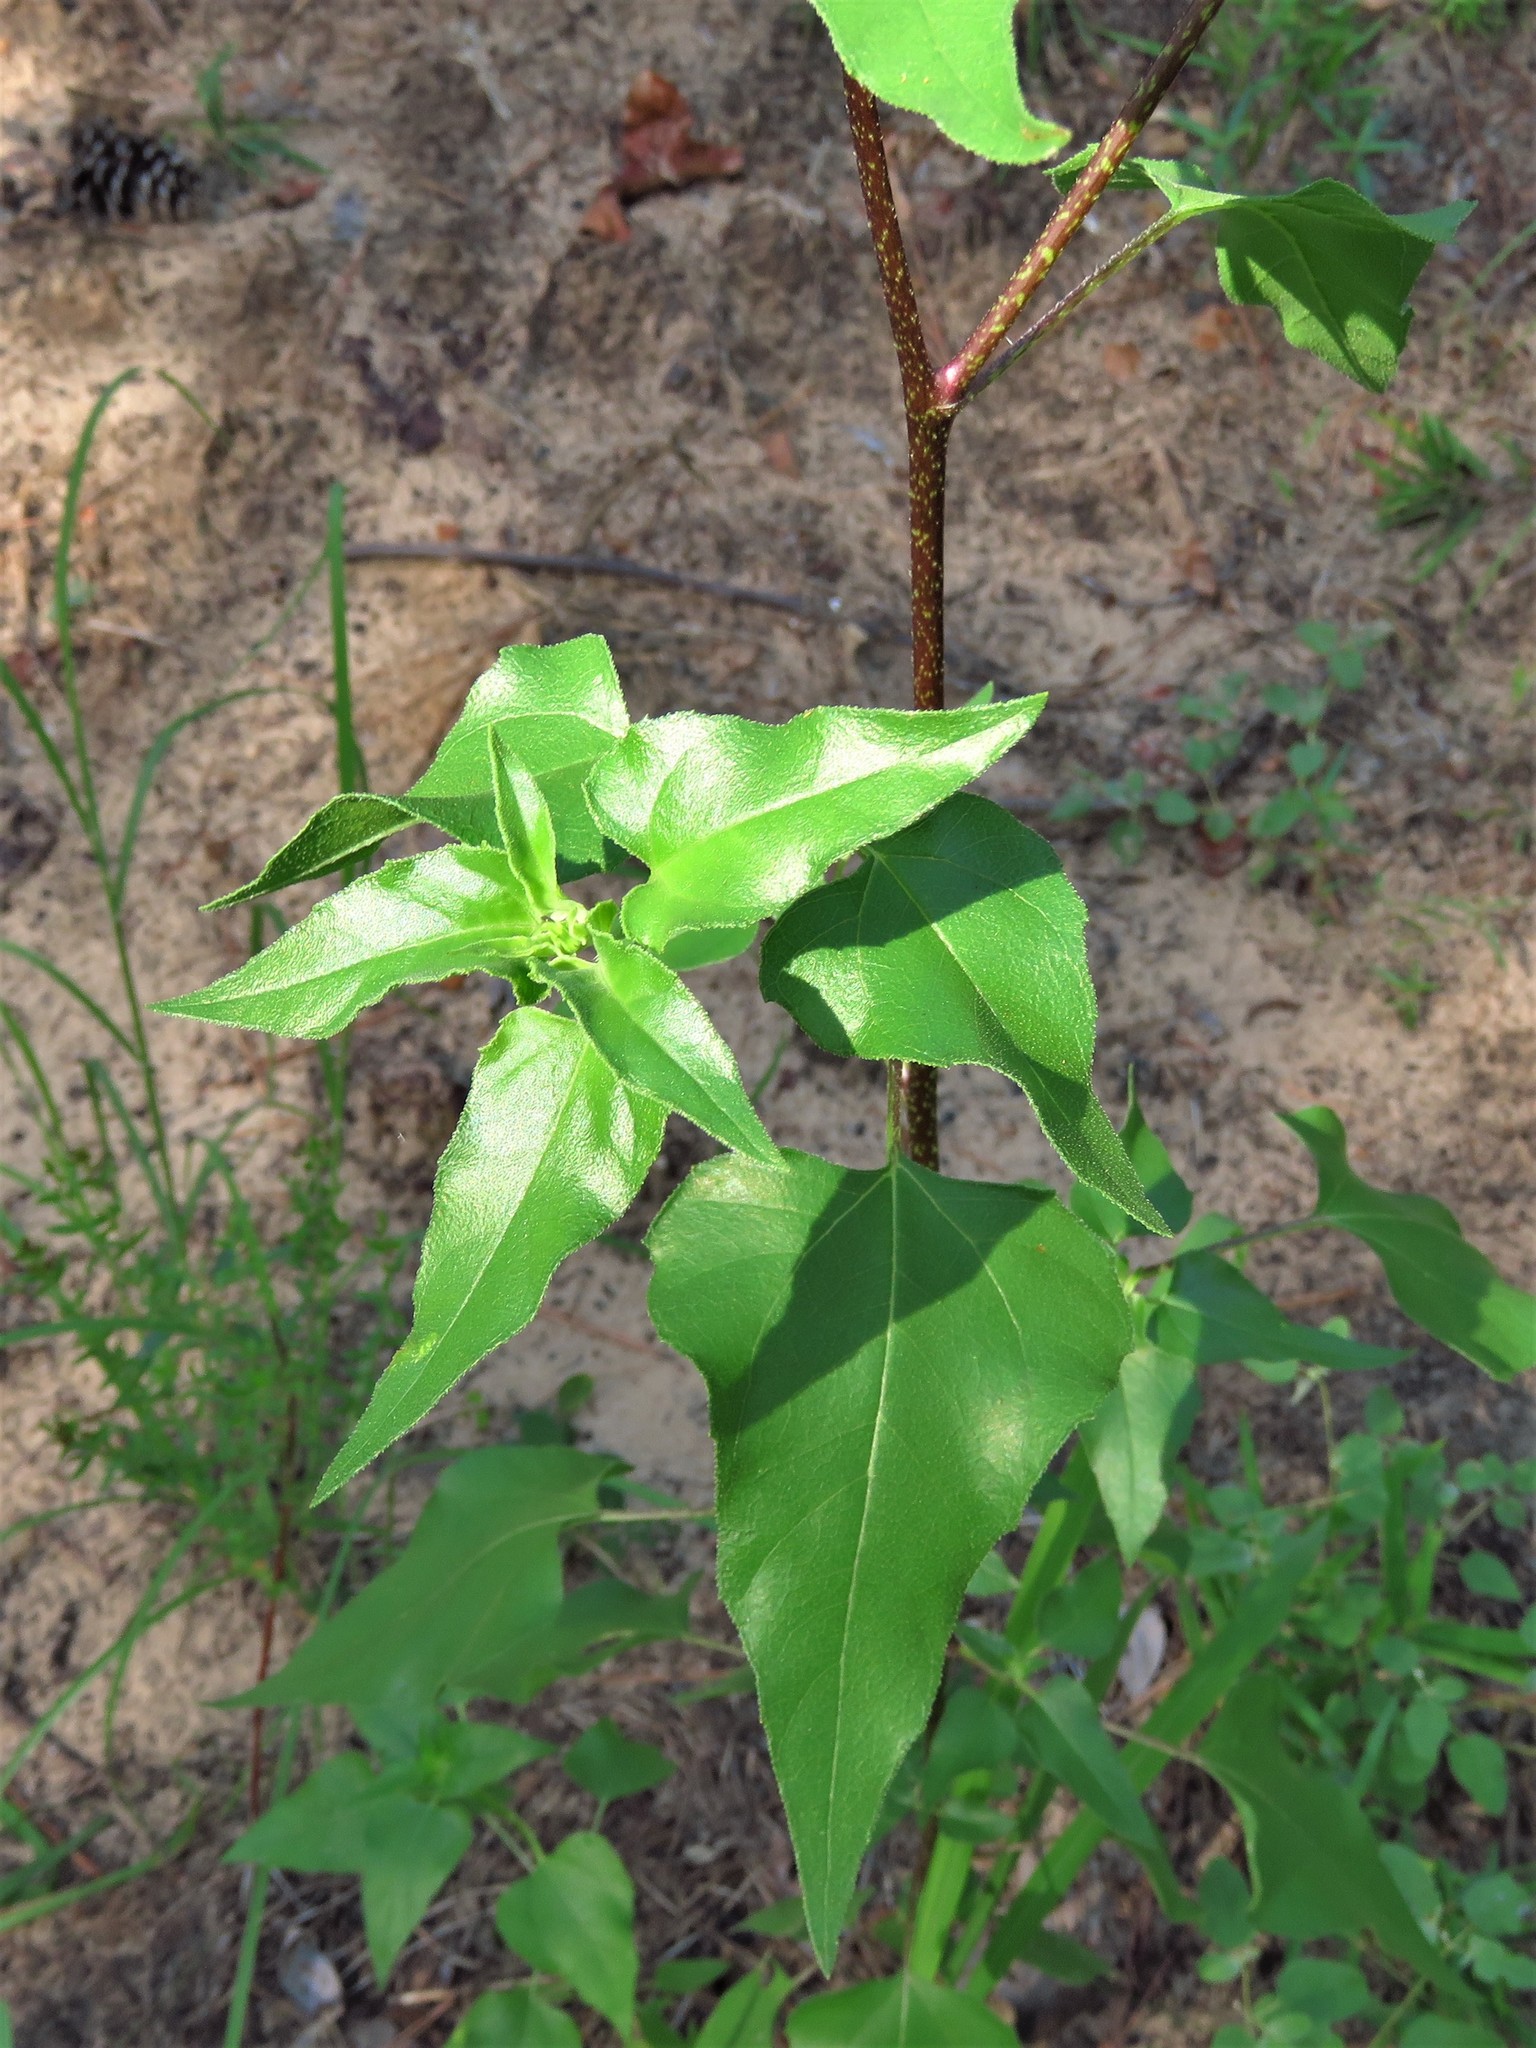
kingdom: Plantae
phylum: Tracheophyta
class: Magnoliopsida
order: Asterales
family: Asteraceae
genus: Helianthus
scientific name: Helianthus debilis
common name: Weak sunflower
